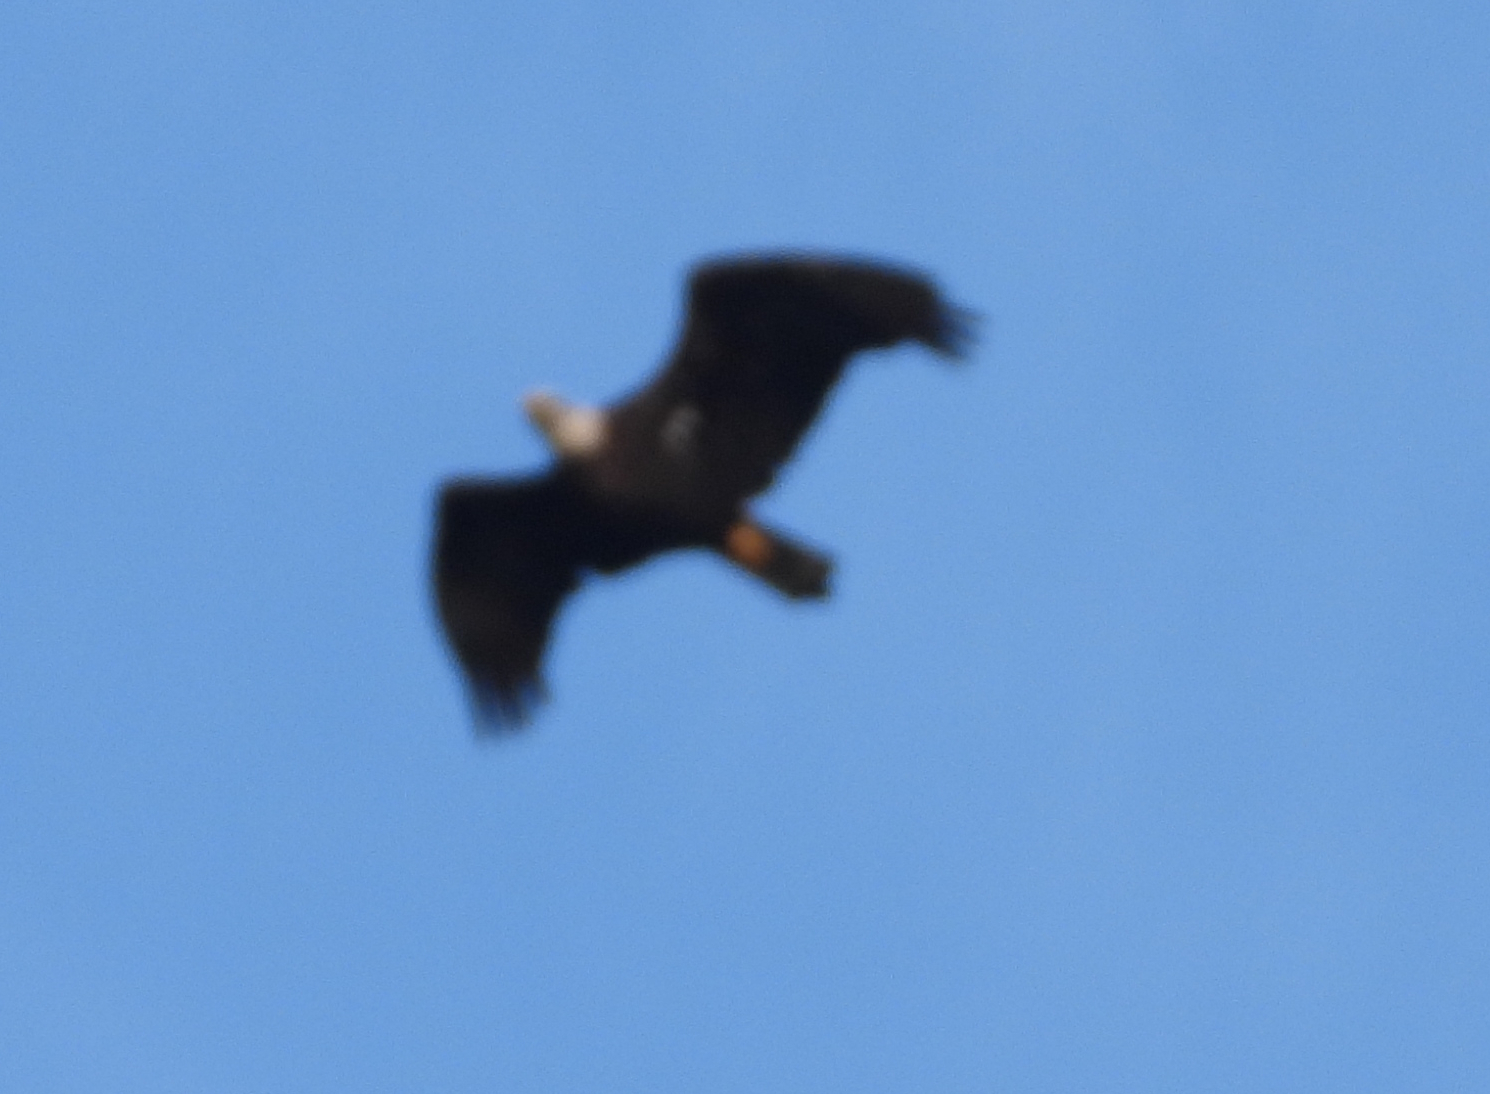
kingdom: Animalia
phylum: Chordata
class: Aves
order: Accipitriformes
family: Accipitridae
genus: Haliaeetus
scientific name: Haliaeetus leucocephalus
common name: Bald eagle
